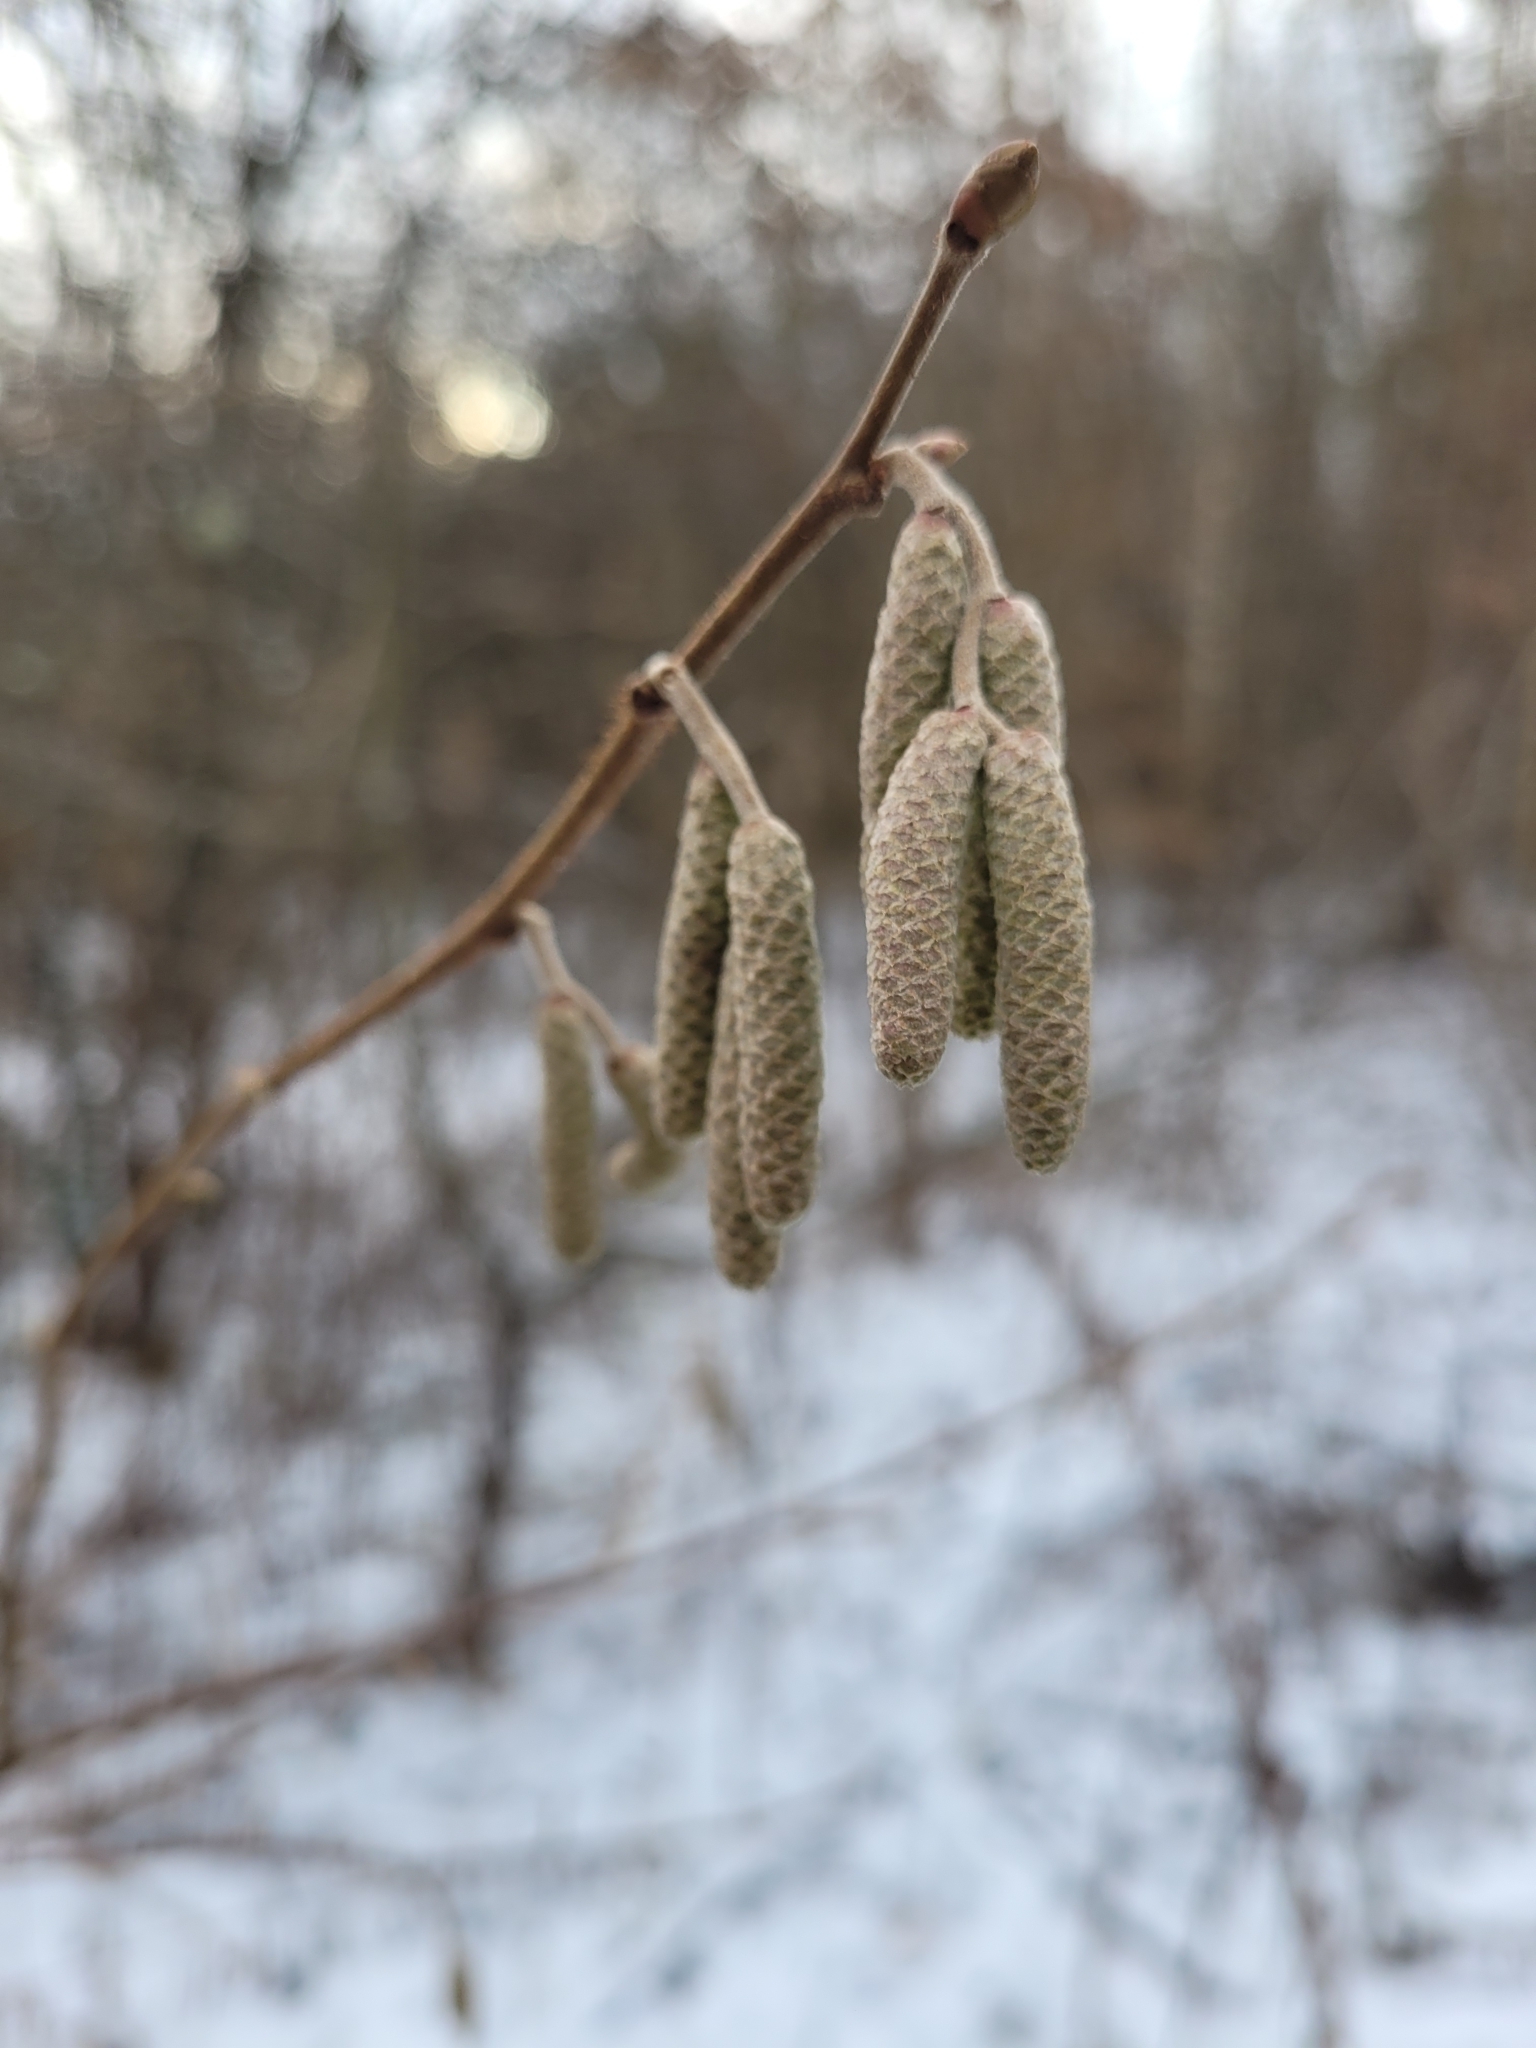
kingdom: Plantae
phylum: Tracheophyta
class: Magnoliopsida
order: Fagales
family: Betulaceae
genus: Corylus
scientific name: Corylus avellana
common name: European hazel
